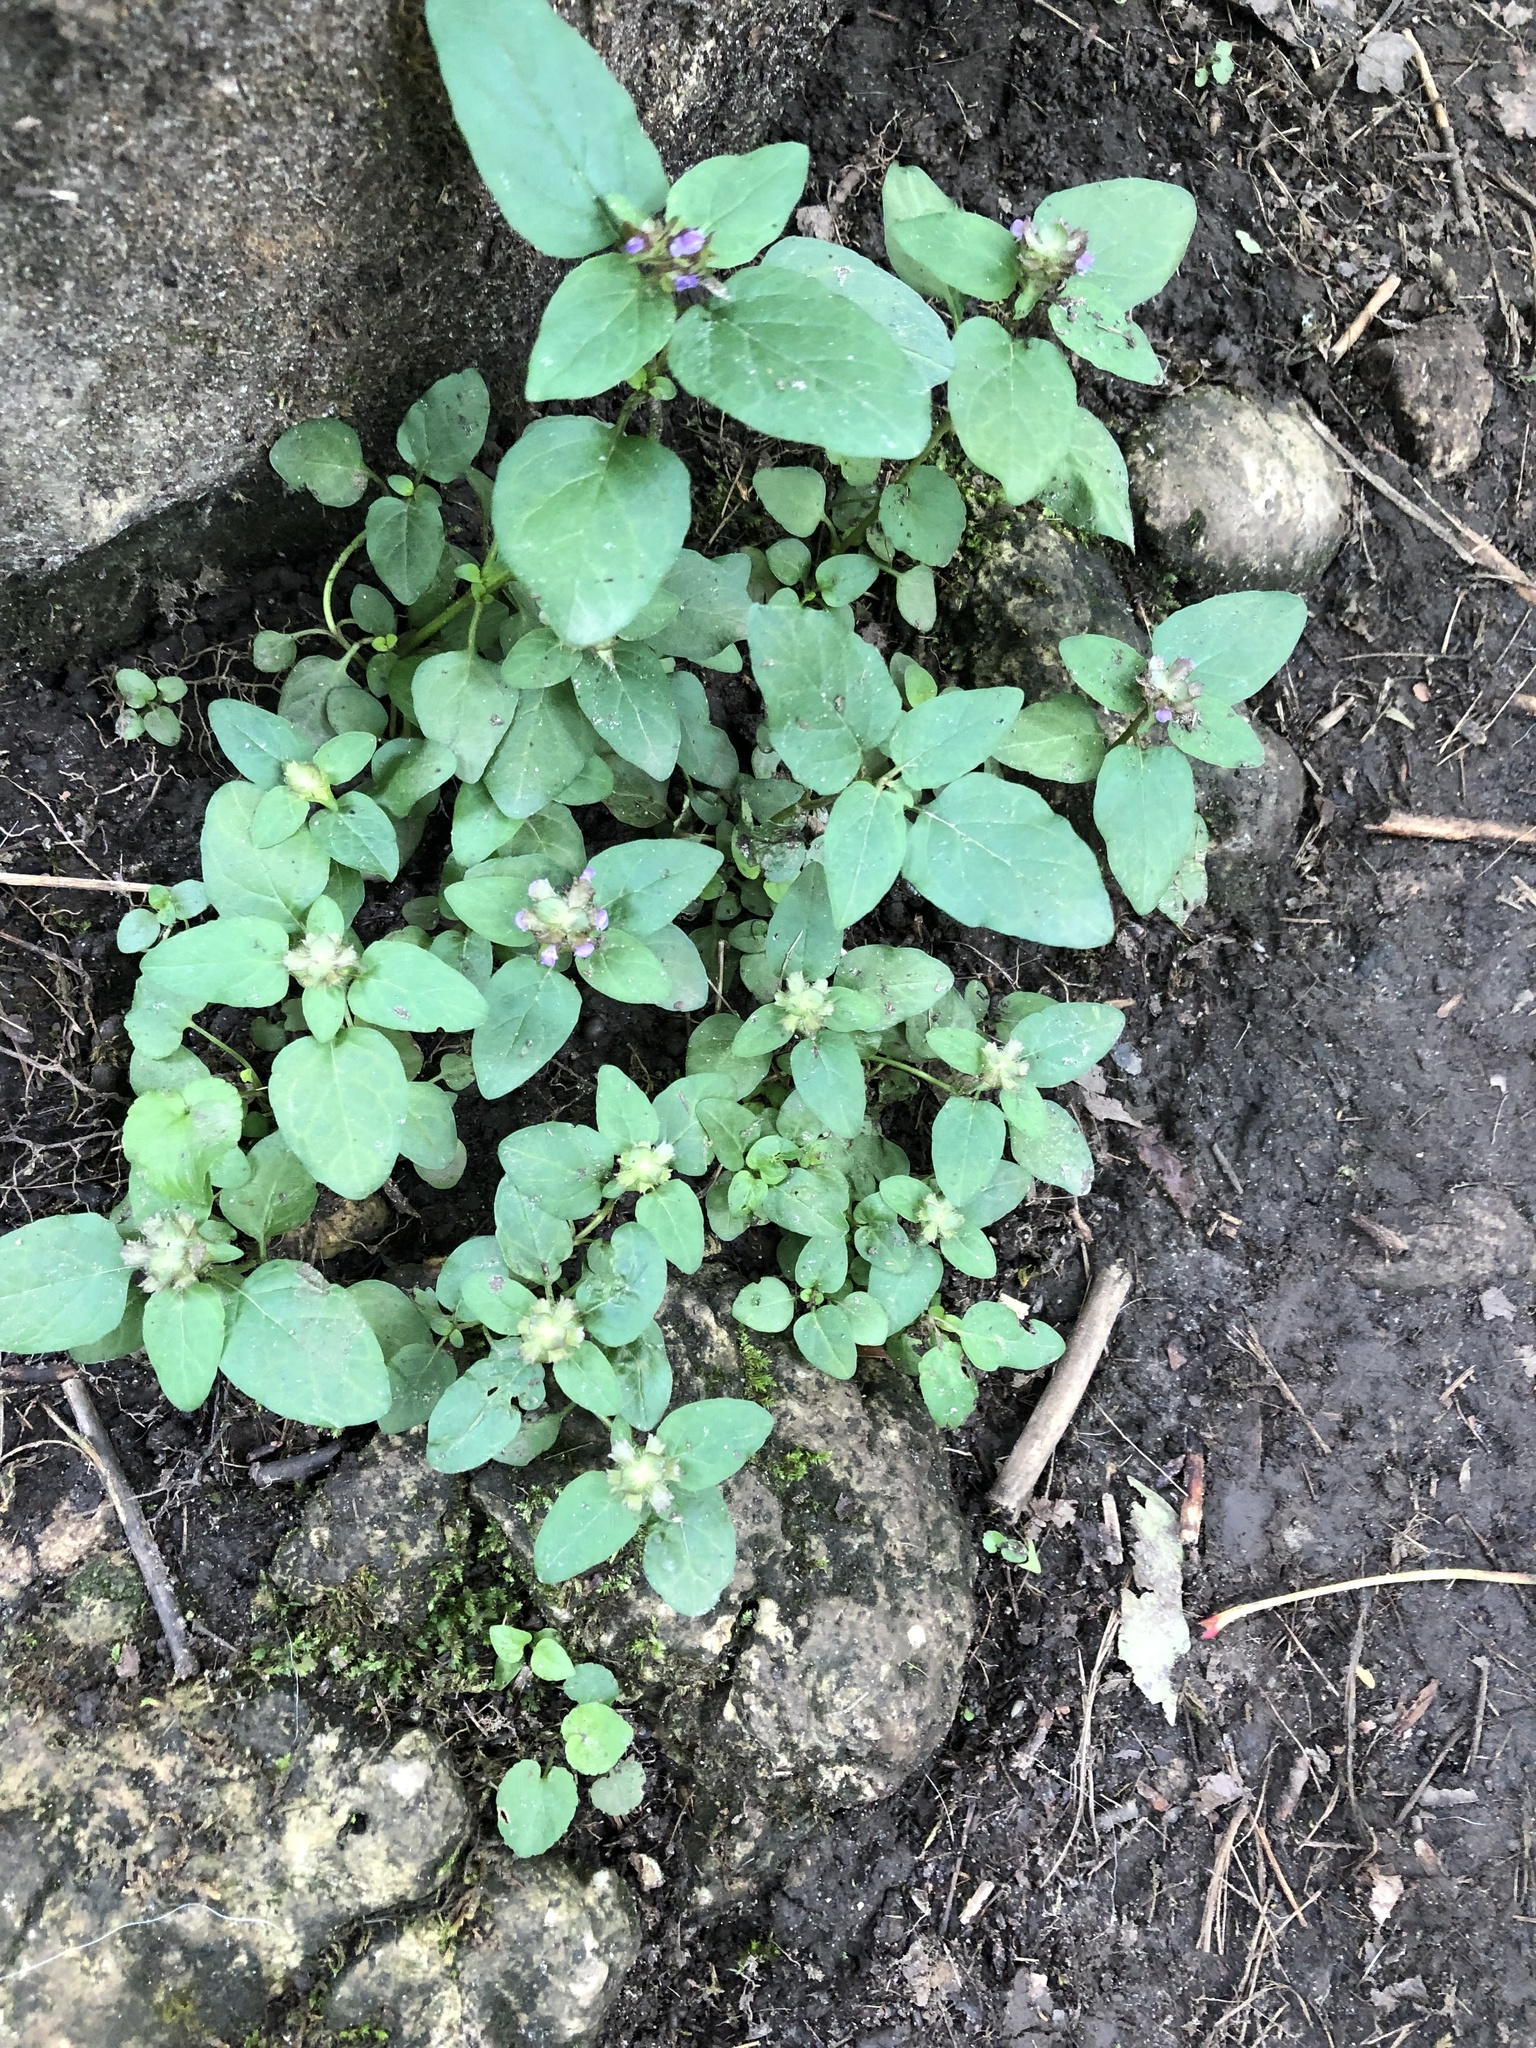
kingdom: Plantae
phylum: Tracheophyta
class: Magnoliopsida
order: Lamiales
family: Lamiaceae
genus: Prunella
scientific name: Prunella vulgaris
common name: Heal-all
